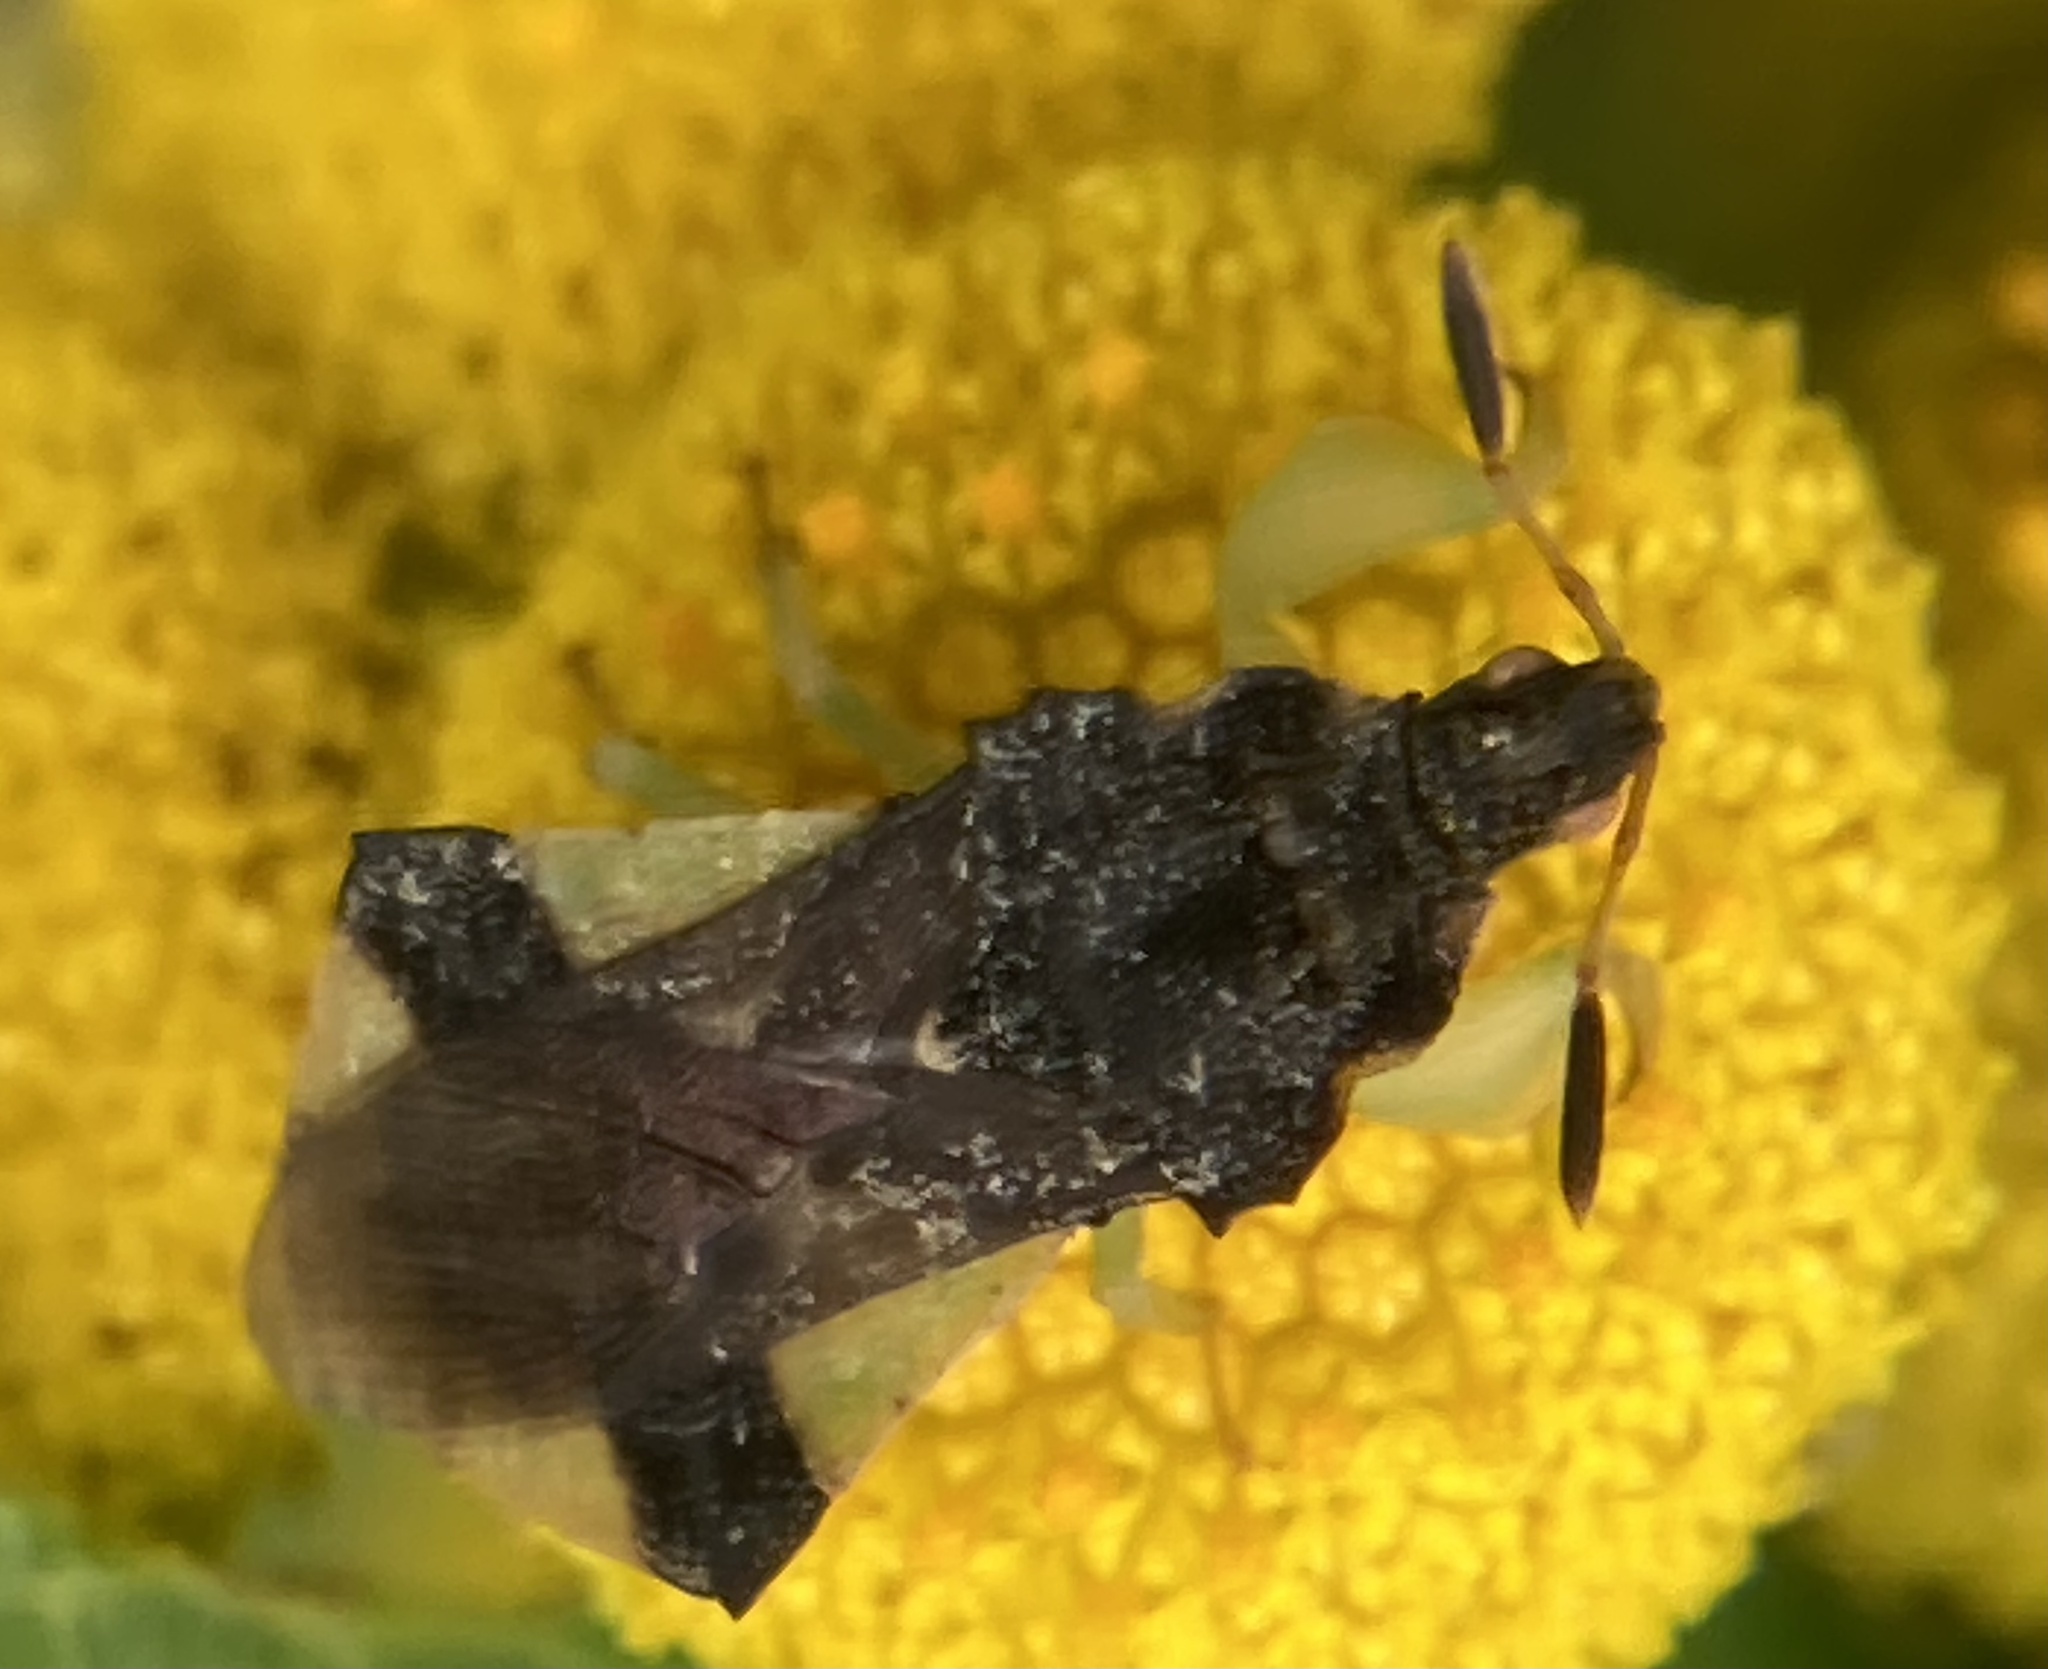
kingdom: Animalia
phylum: Arthropoda
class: Insecta
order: Hemiptera
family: Reduviidae
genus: Phymata
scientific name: Phymata pennsylvanica
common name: Pennsylvania ambush bug
